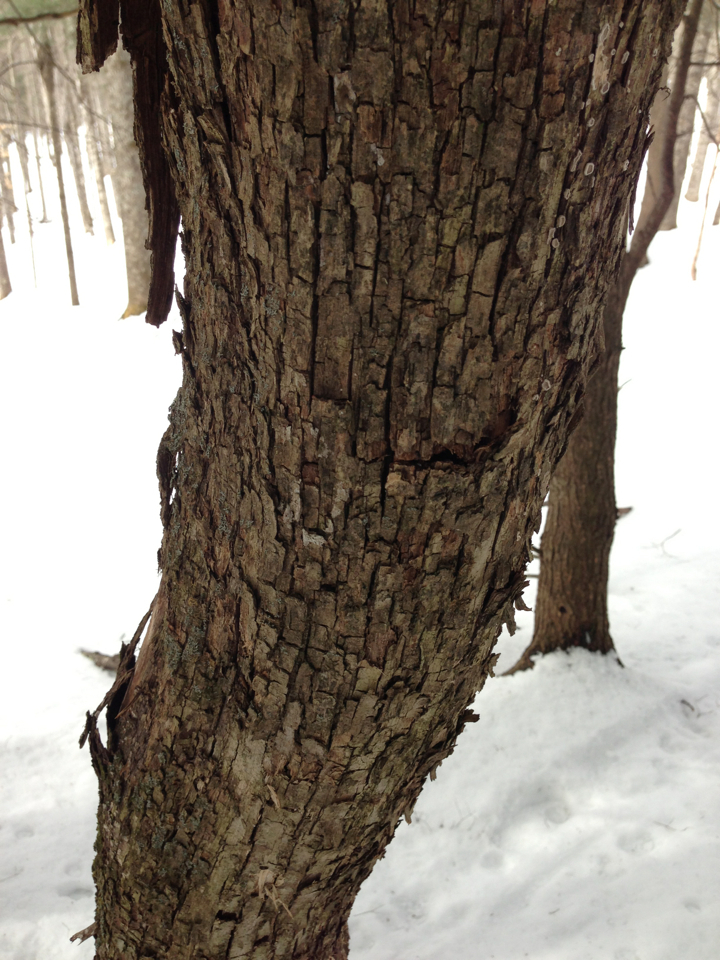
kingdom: Plantae
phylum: Tracheophyta
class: Magnoliopsida
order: Fagales
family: Betulaceae
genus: Ostrya
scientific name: Ostrya virginiana
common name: Ironwood
